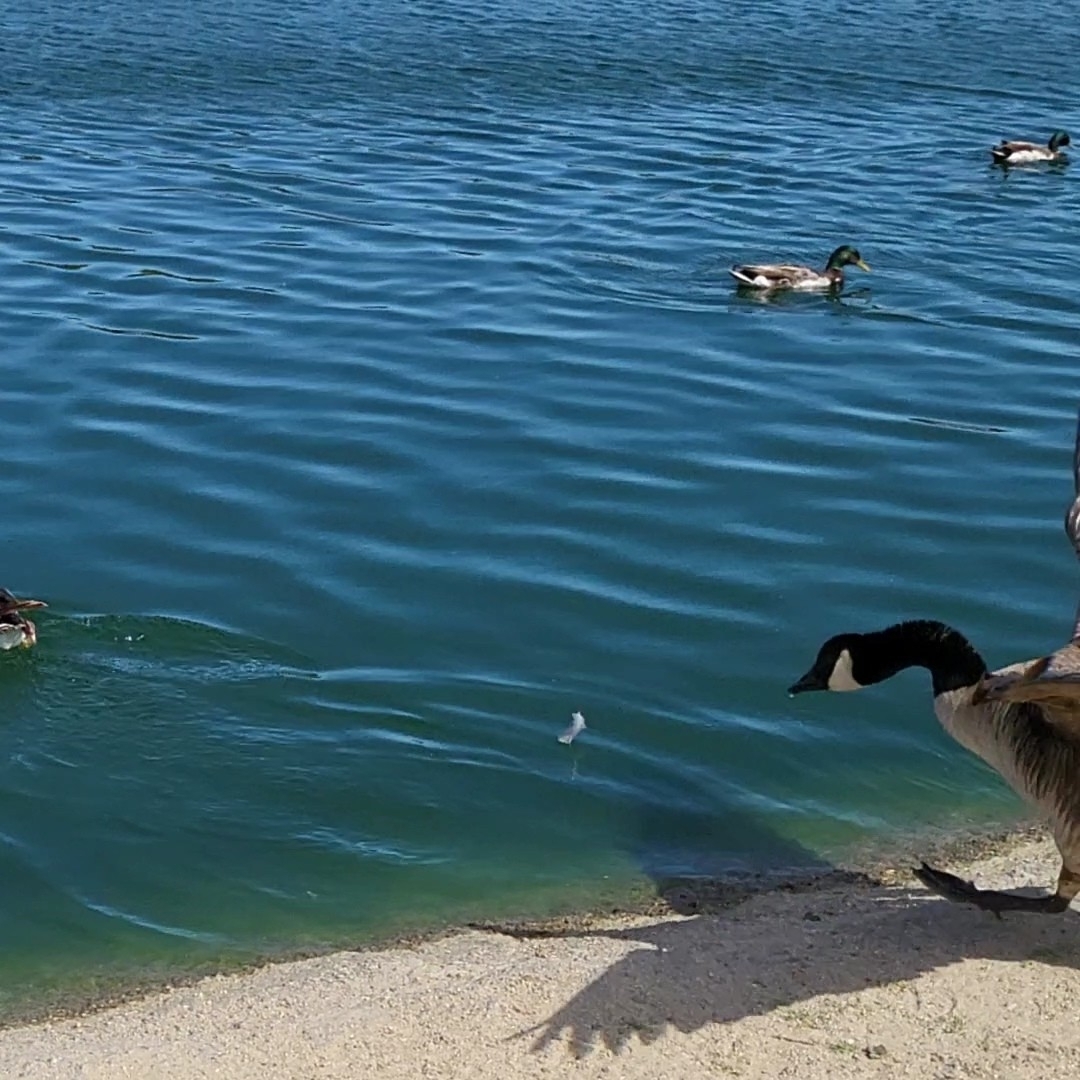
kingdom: Animalia
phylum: Chordata
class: Aves
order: Anseriformes
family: Anatidae
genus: Branta
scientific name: Branta canadensis
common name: Canada goose
